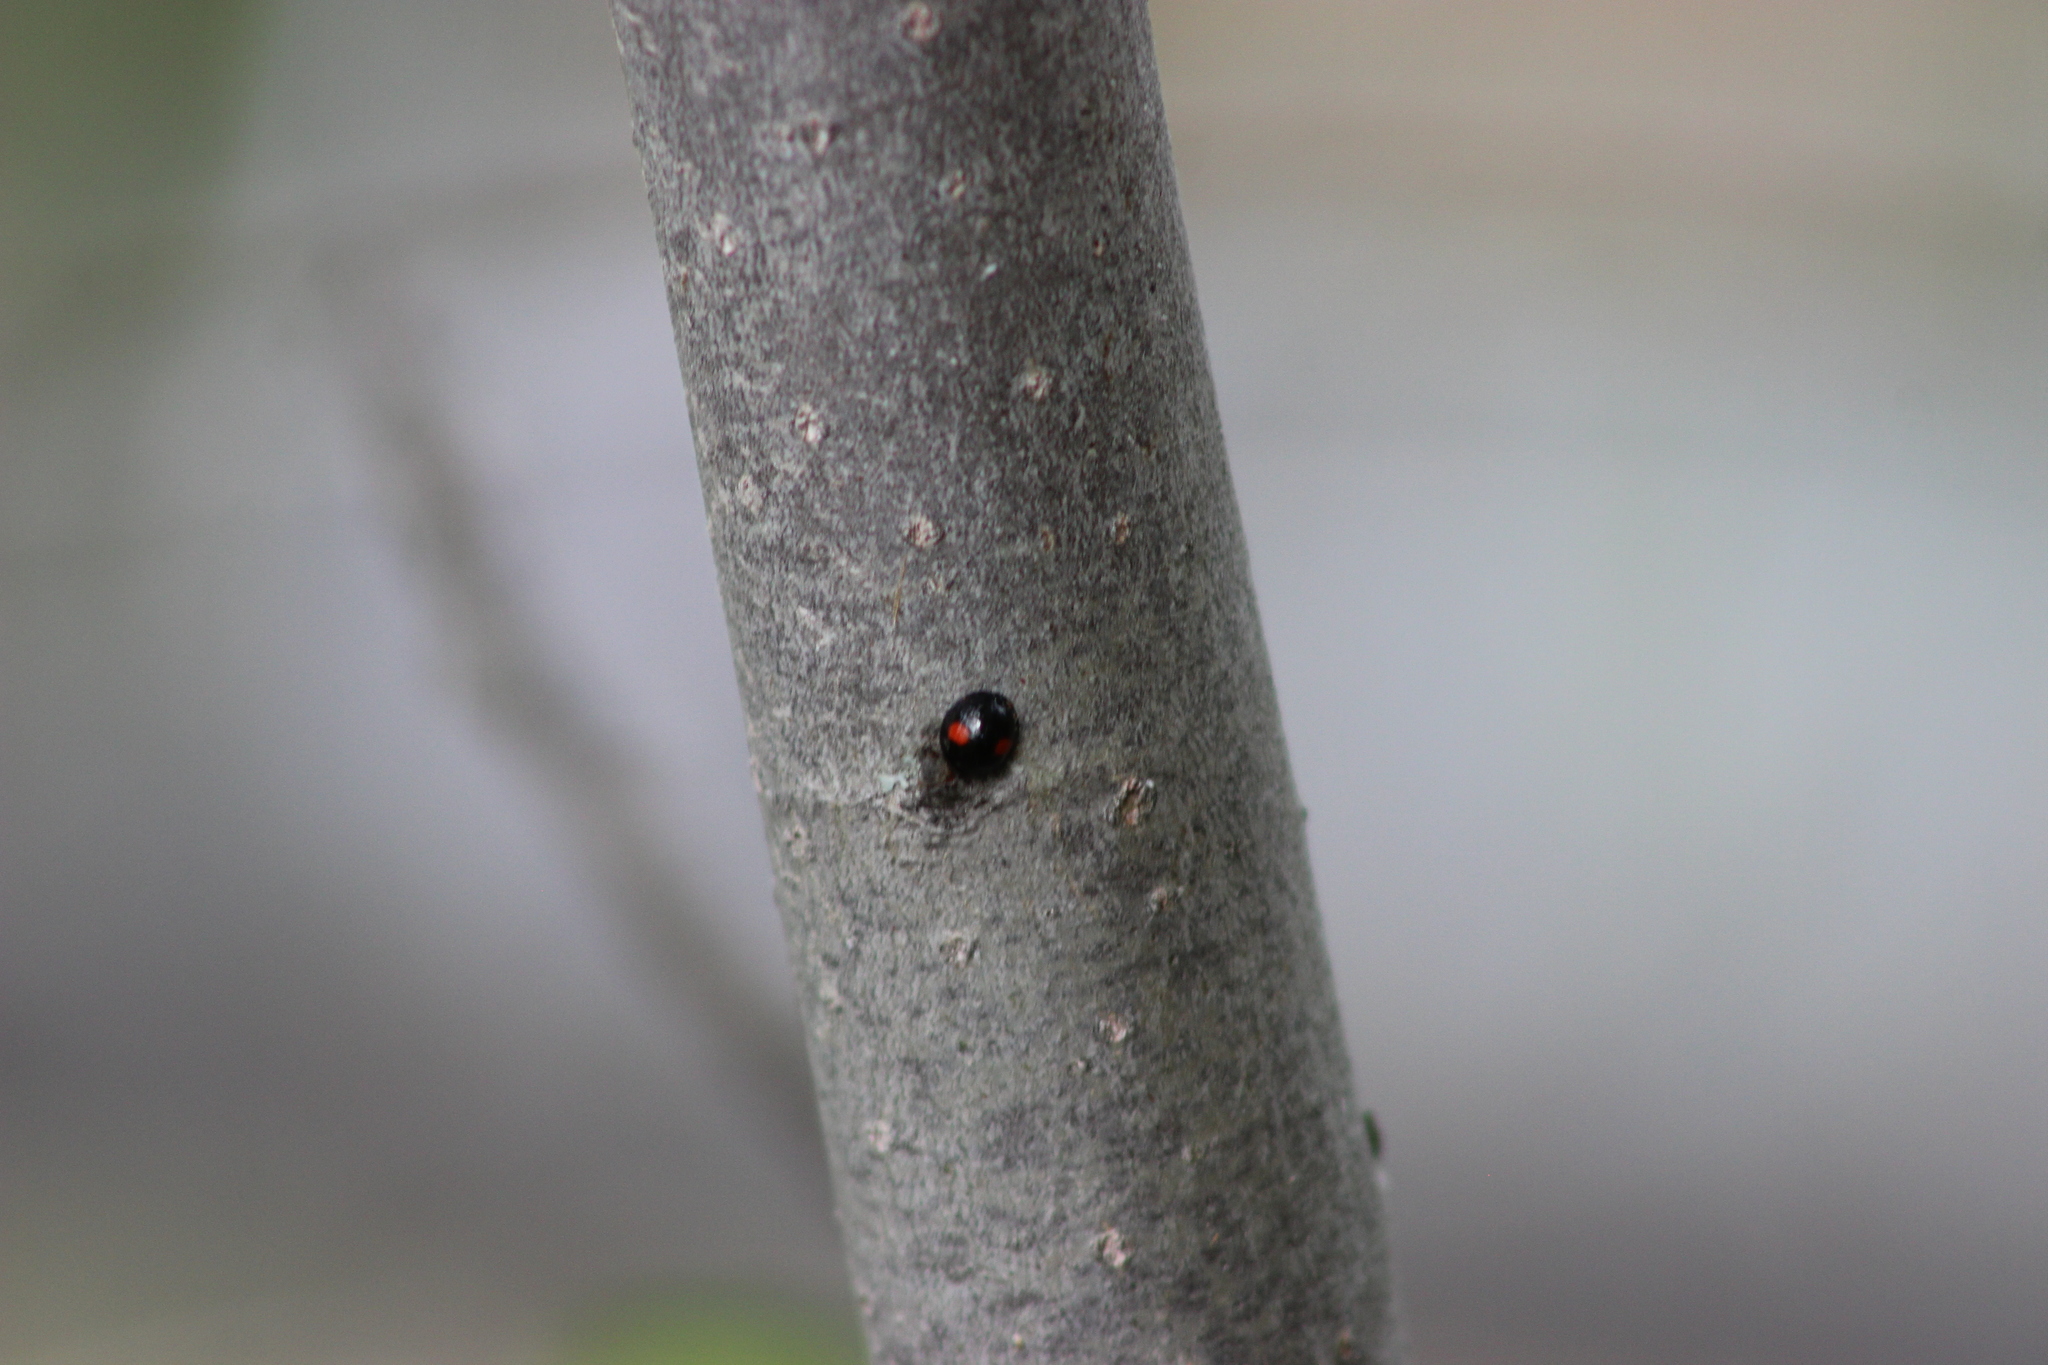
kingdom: Animalia
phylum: Arthropoda
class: Insecta
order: Coleoptera
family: Coccinellidae
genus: Chilocorus
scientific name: Chilocorus renipustulatus
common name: Kidney-spot ladybird
